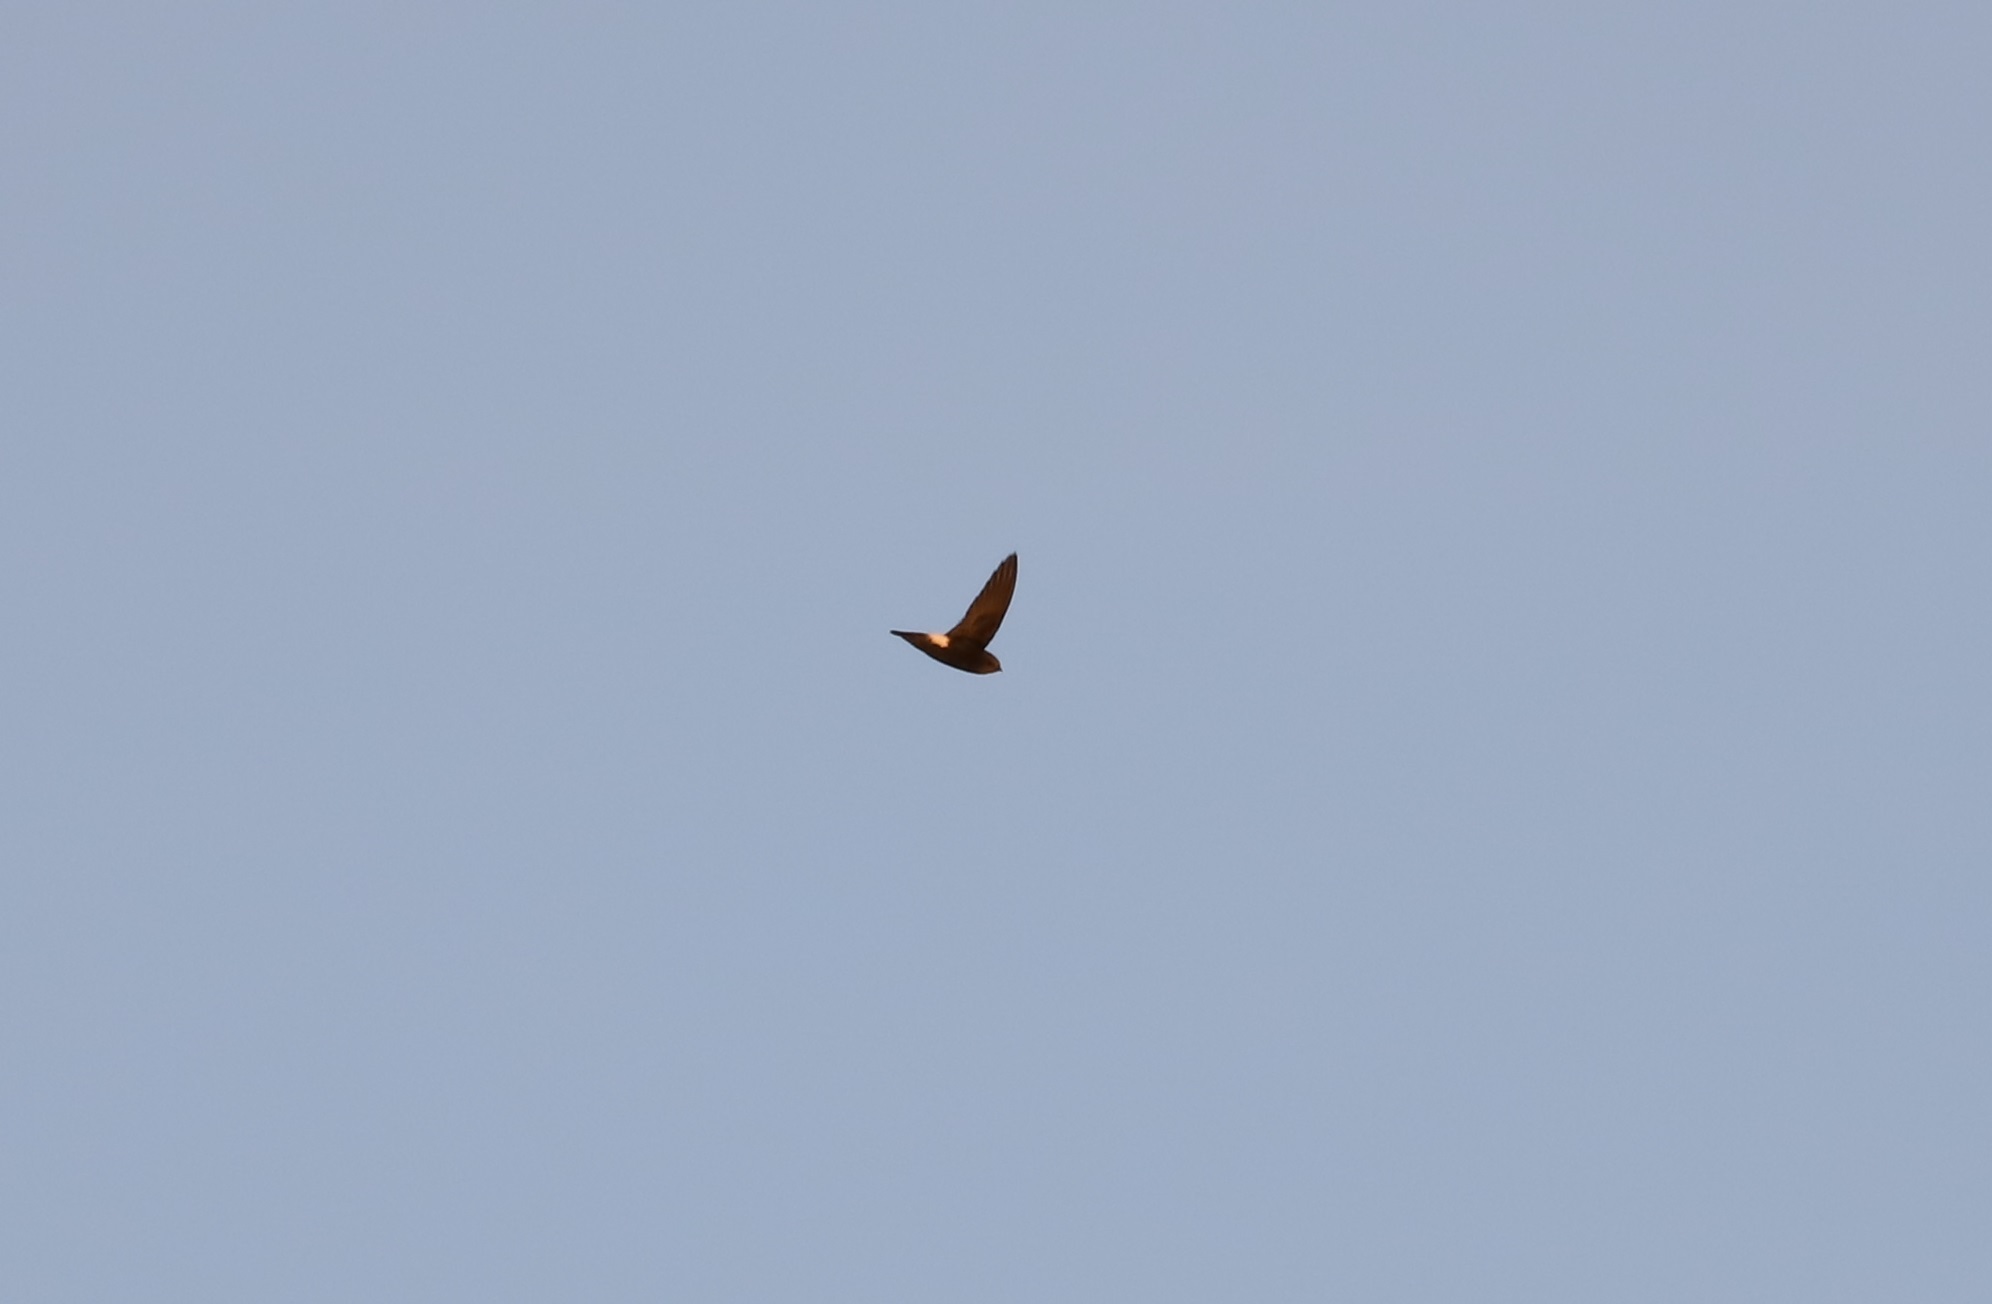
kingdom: Animalia
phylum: Chordata
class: Aves
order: Apodiformes
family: Apodidae
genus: Apus
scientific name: Apus nipalensis
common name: House swift
